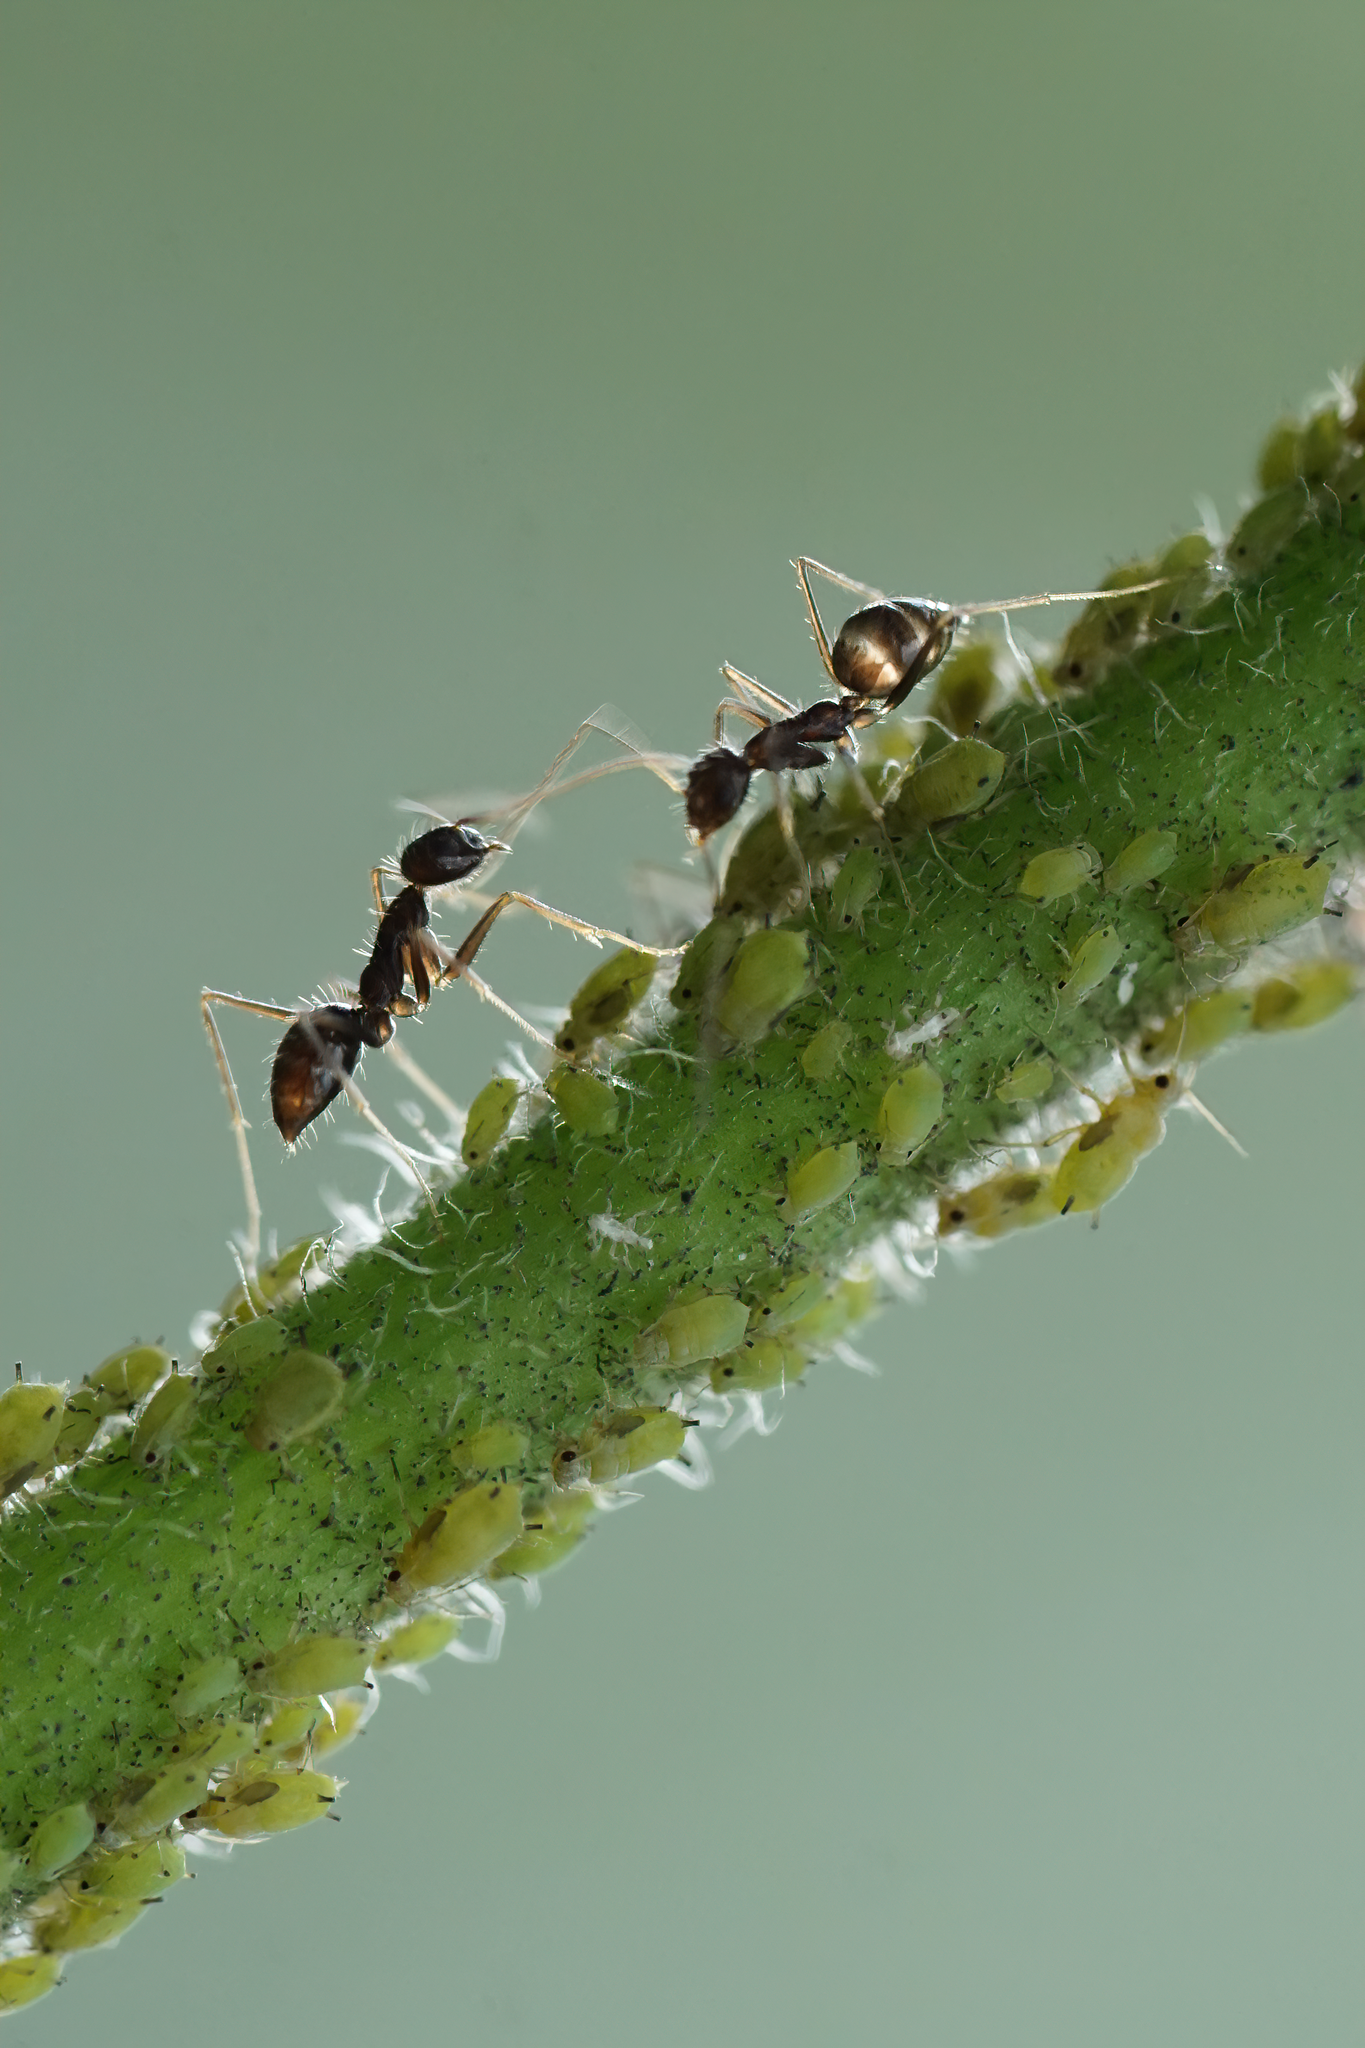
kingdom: Animalia
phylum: Arthropoda
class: Insecta
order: Hymenoptera
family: Formicidae
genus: Paratrechina
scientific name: Paratrechina longicornis
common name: Longhorned crazy ant
